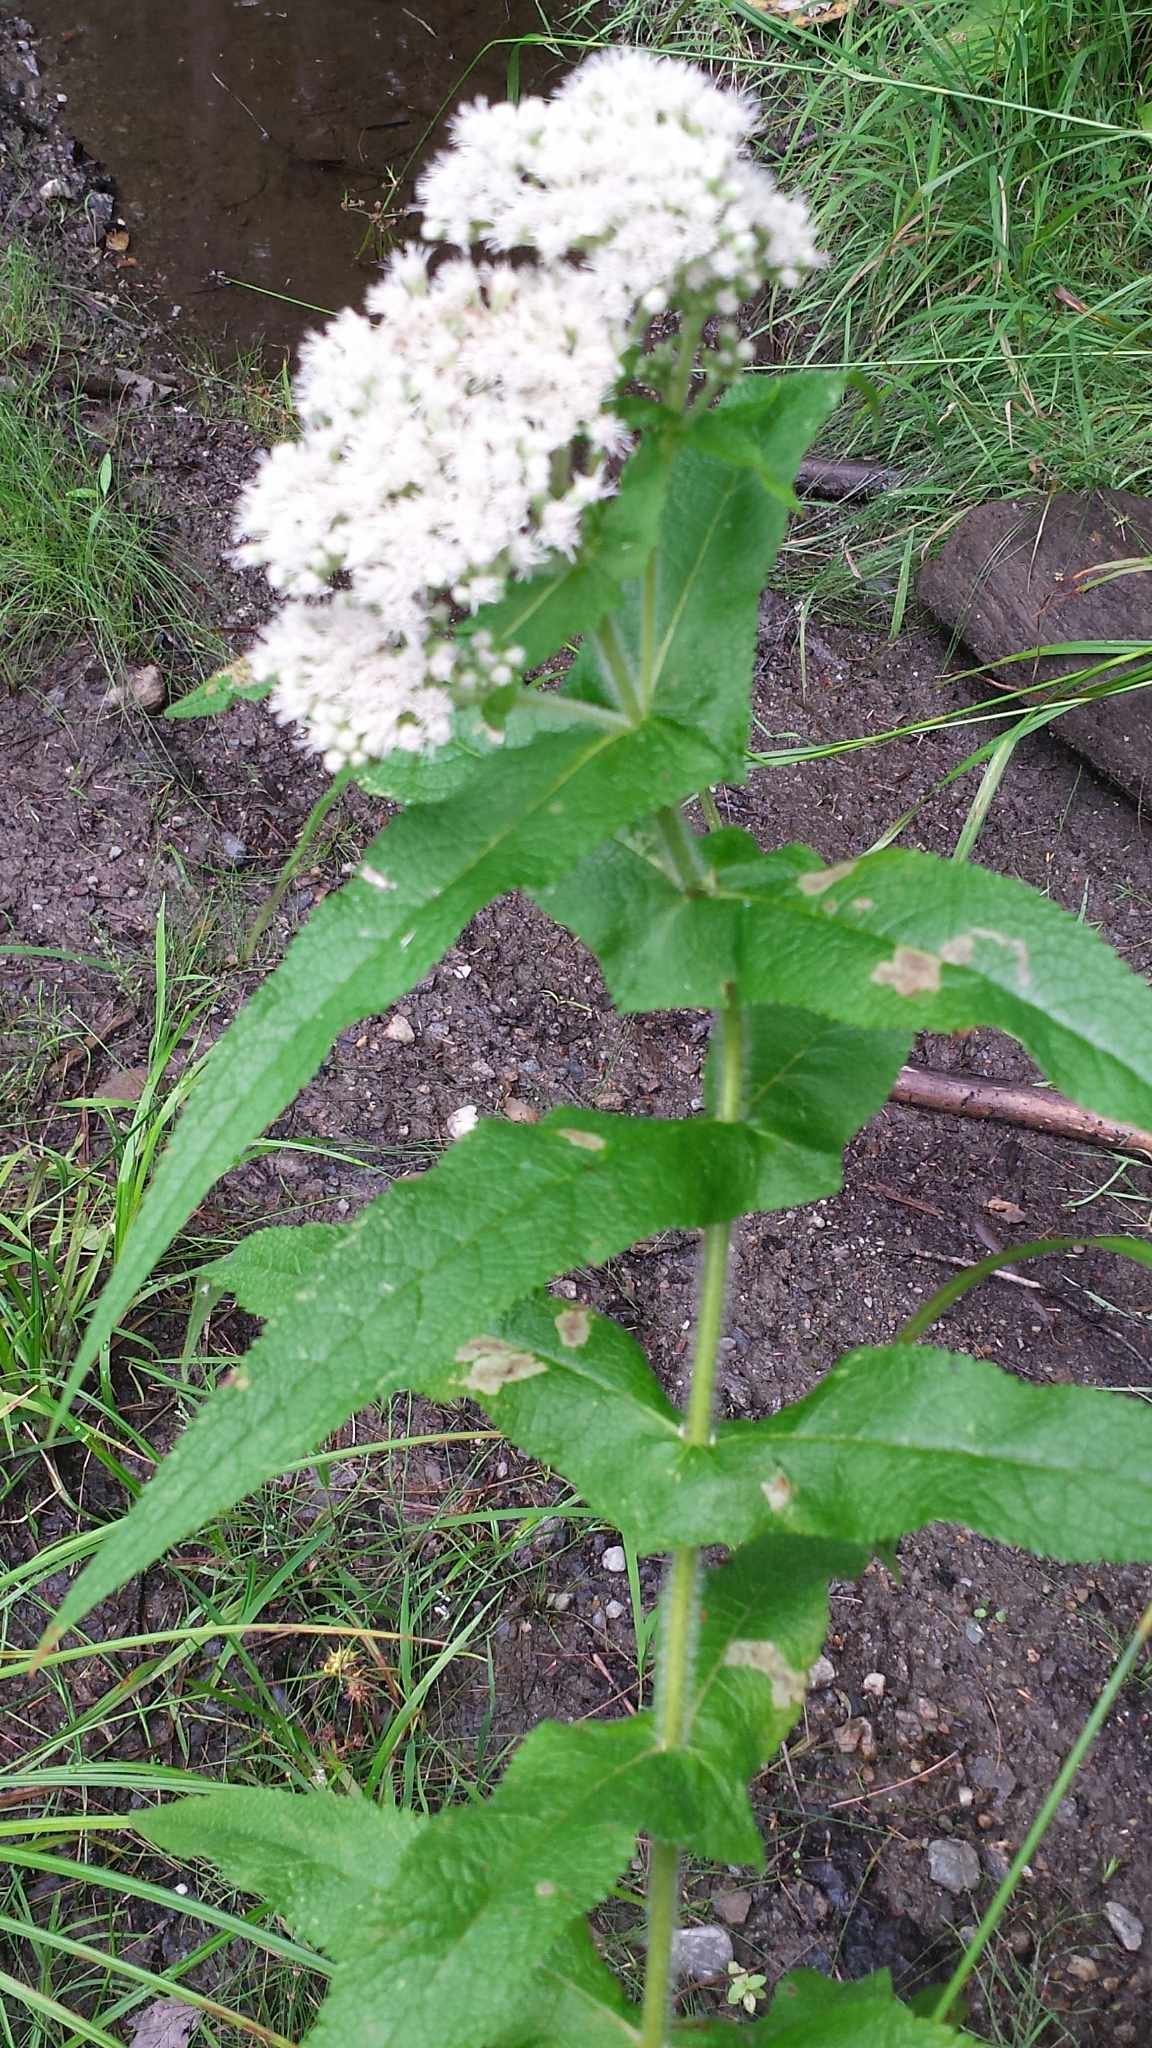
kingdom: Plantae
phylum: Tracheophyta
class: Magnoliopsida
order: Asterales
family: Asteraceae
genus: Eupatorium
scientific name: Eupatorium perfoliatum
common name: Boneset
